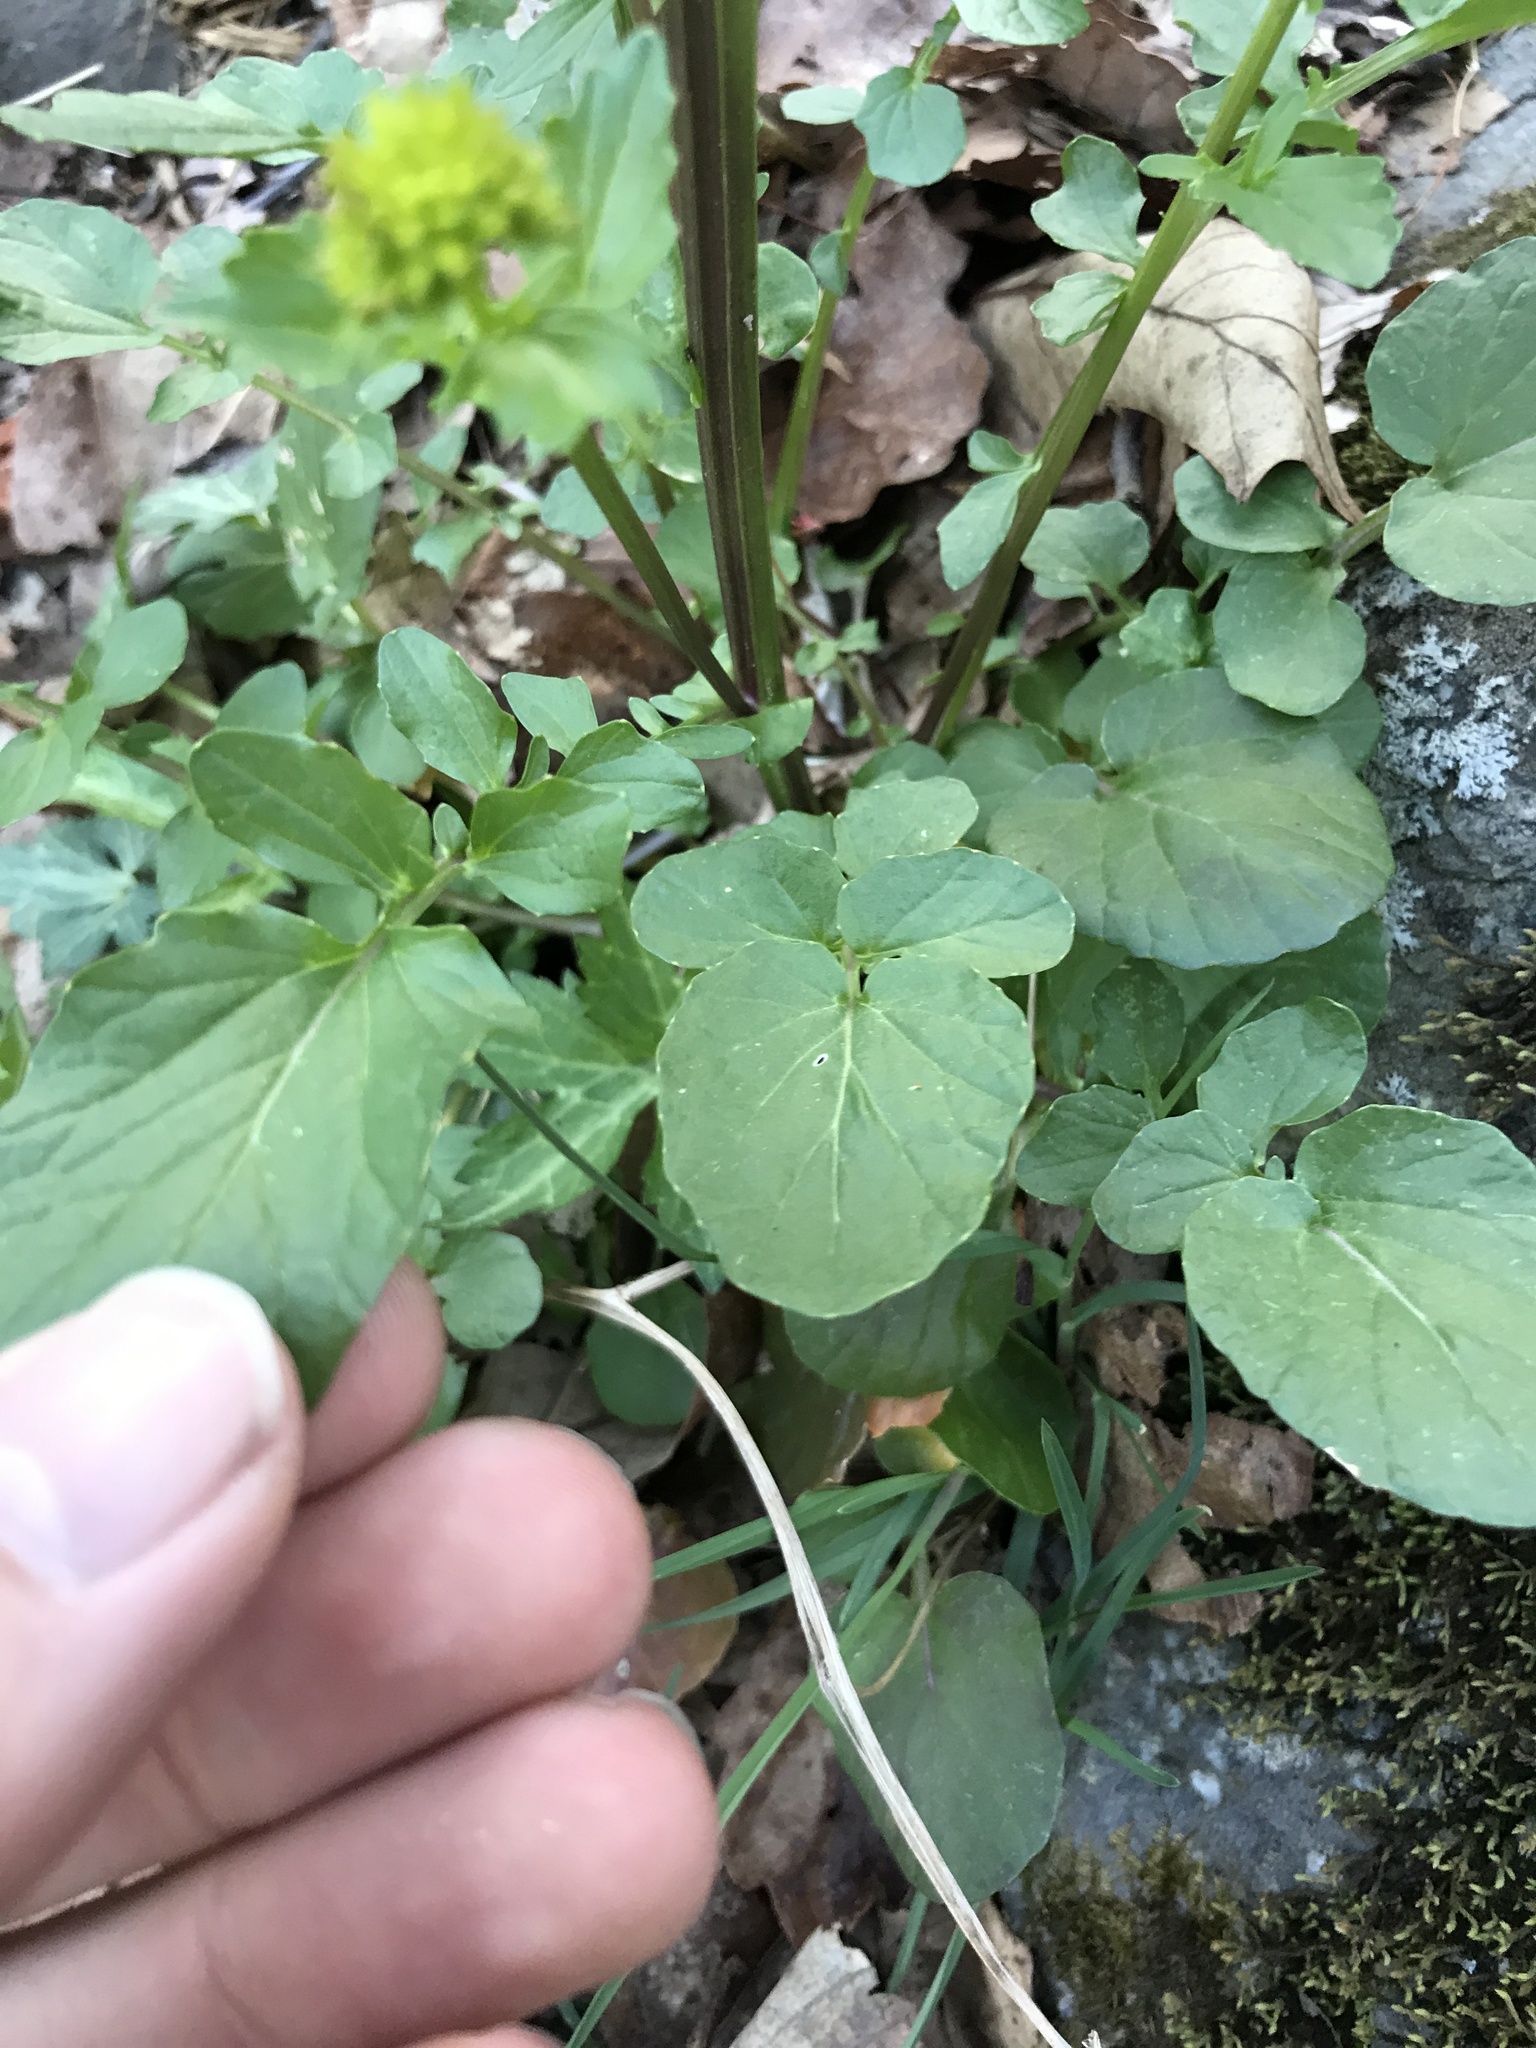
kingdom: Plantae
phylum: Tracheophyta
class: Magnoliopsida
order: Brassicales
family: Brassicaceae
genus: Barbarea
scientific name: Barbarea vulgaris
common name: Cressy-greens
